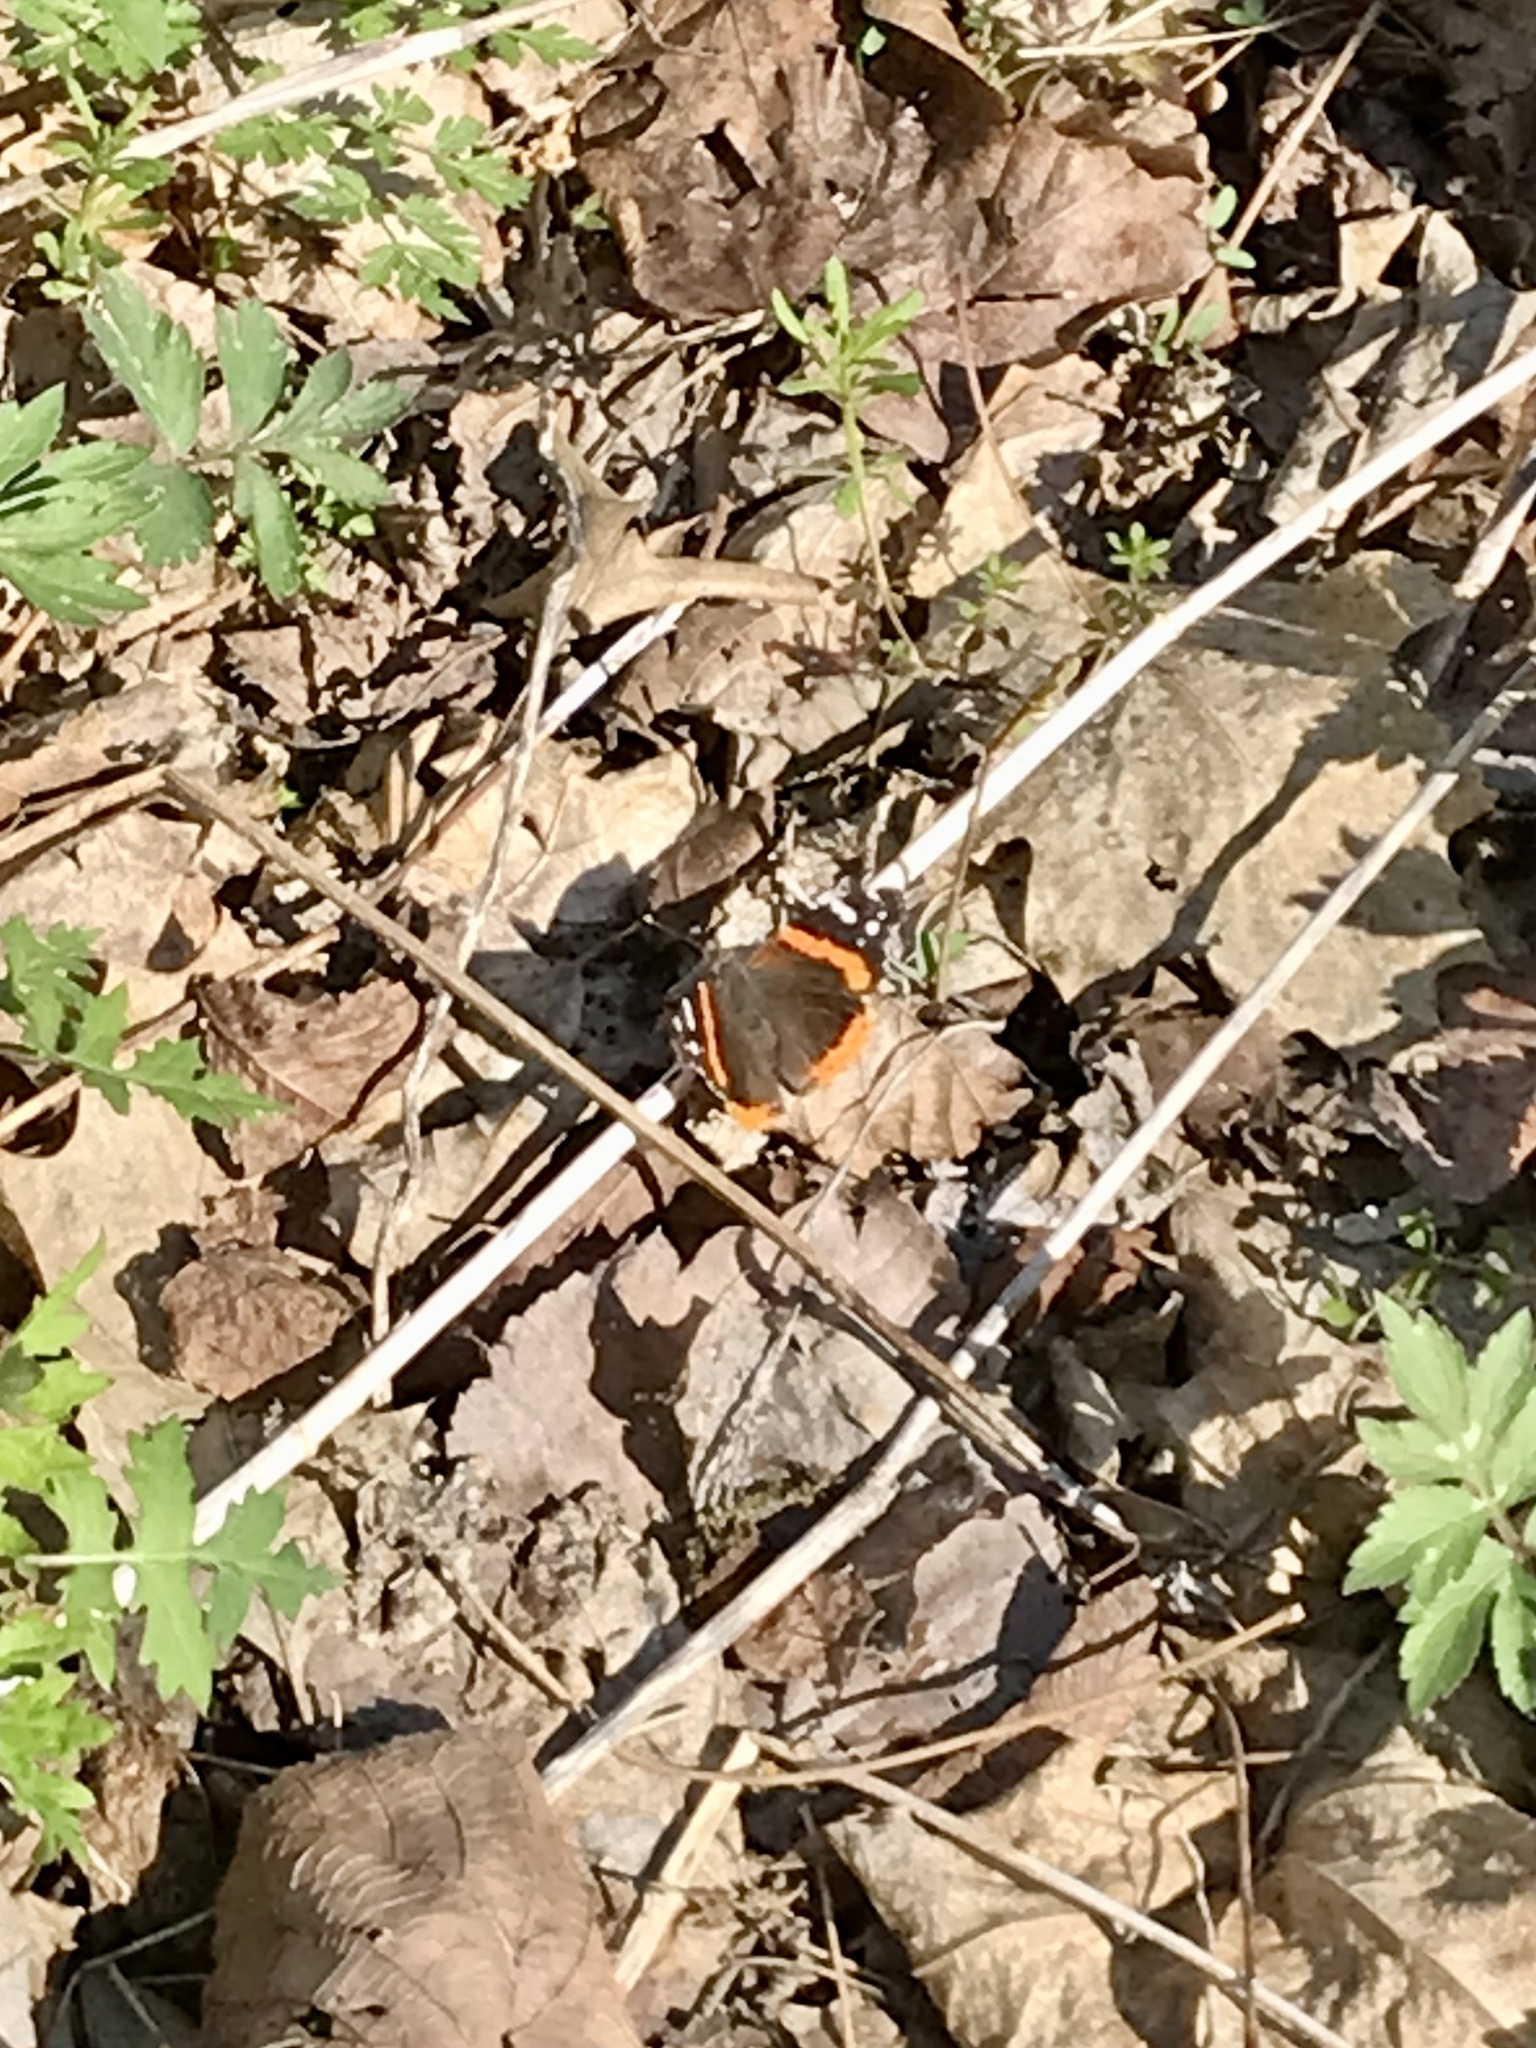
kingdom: Animalia
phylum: Arthropoda
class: Insecta
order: Lepidoptera
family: Nymphalidae
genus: Vanessa
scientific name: Vanessa atalanta
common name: Red admiral
